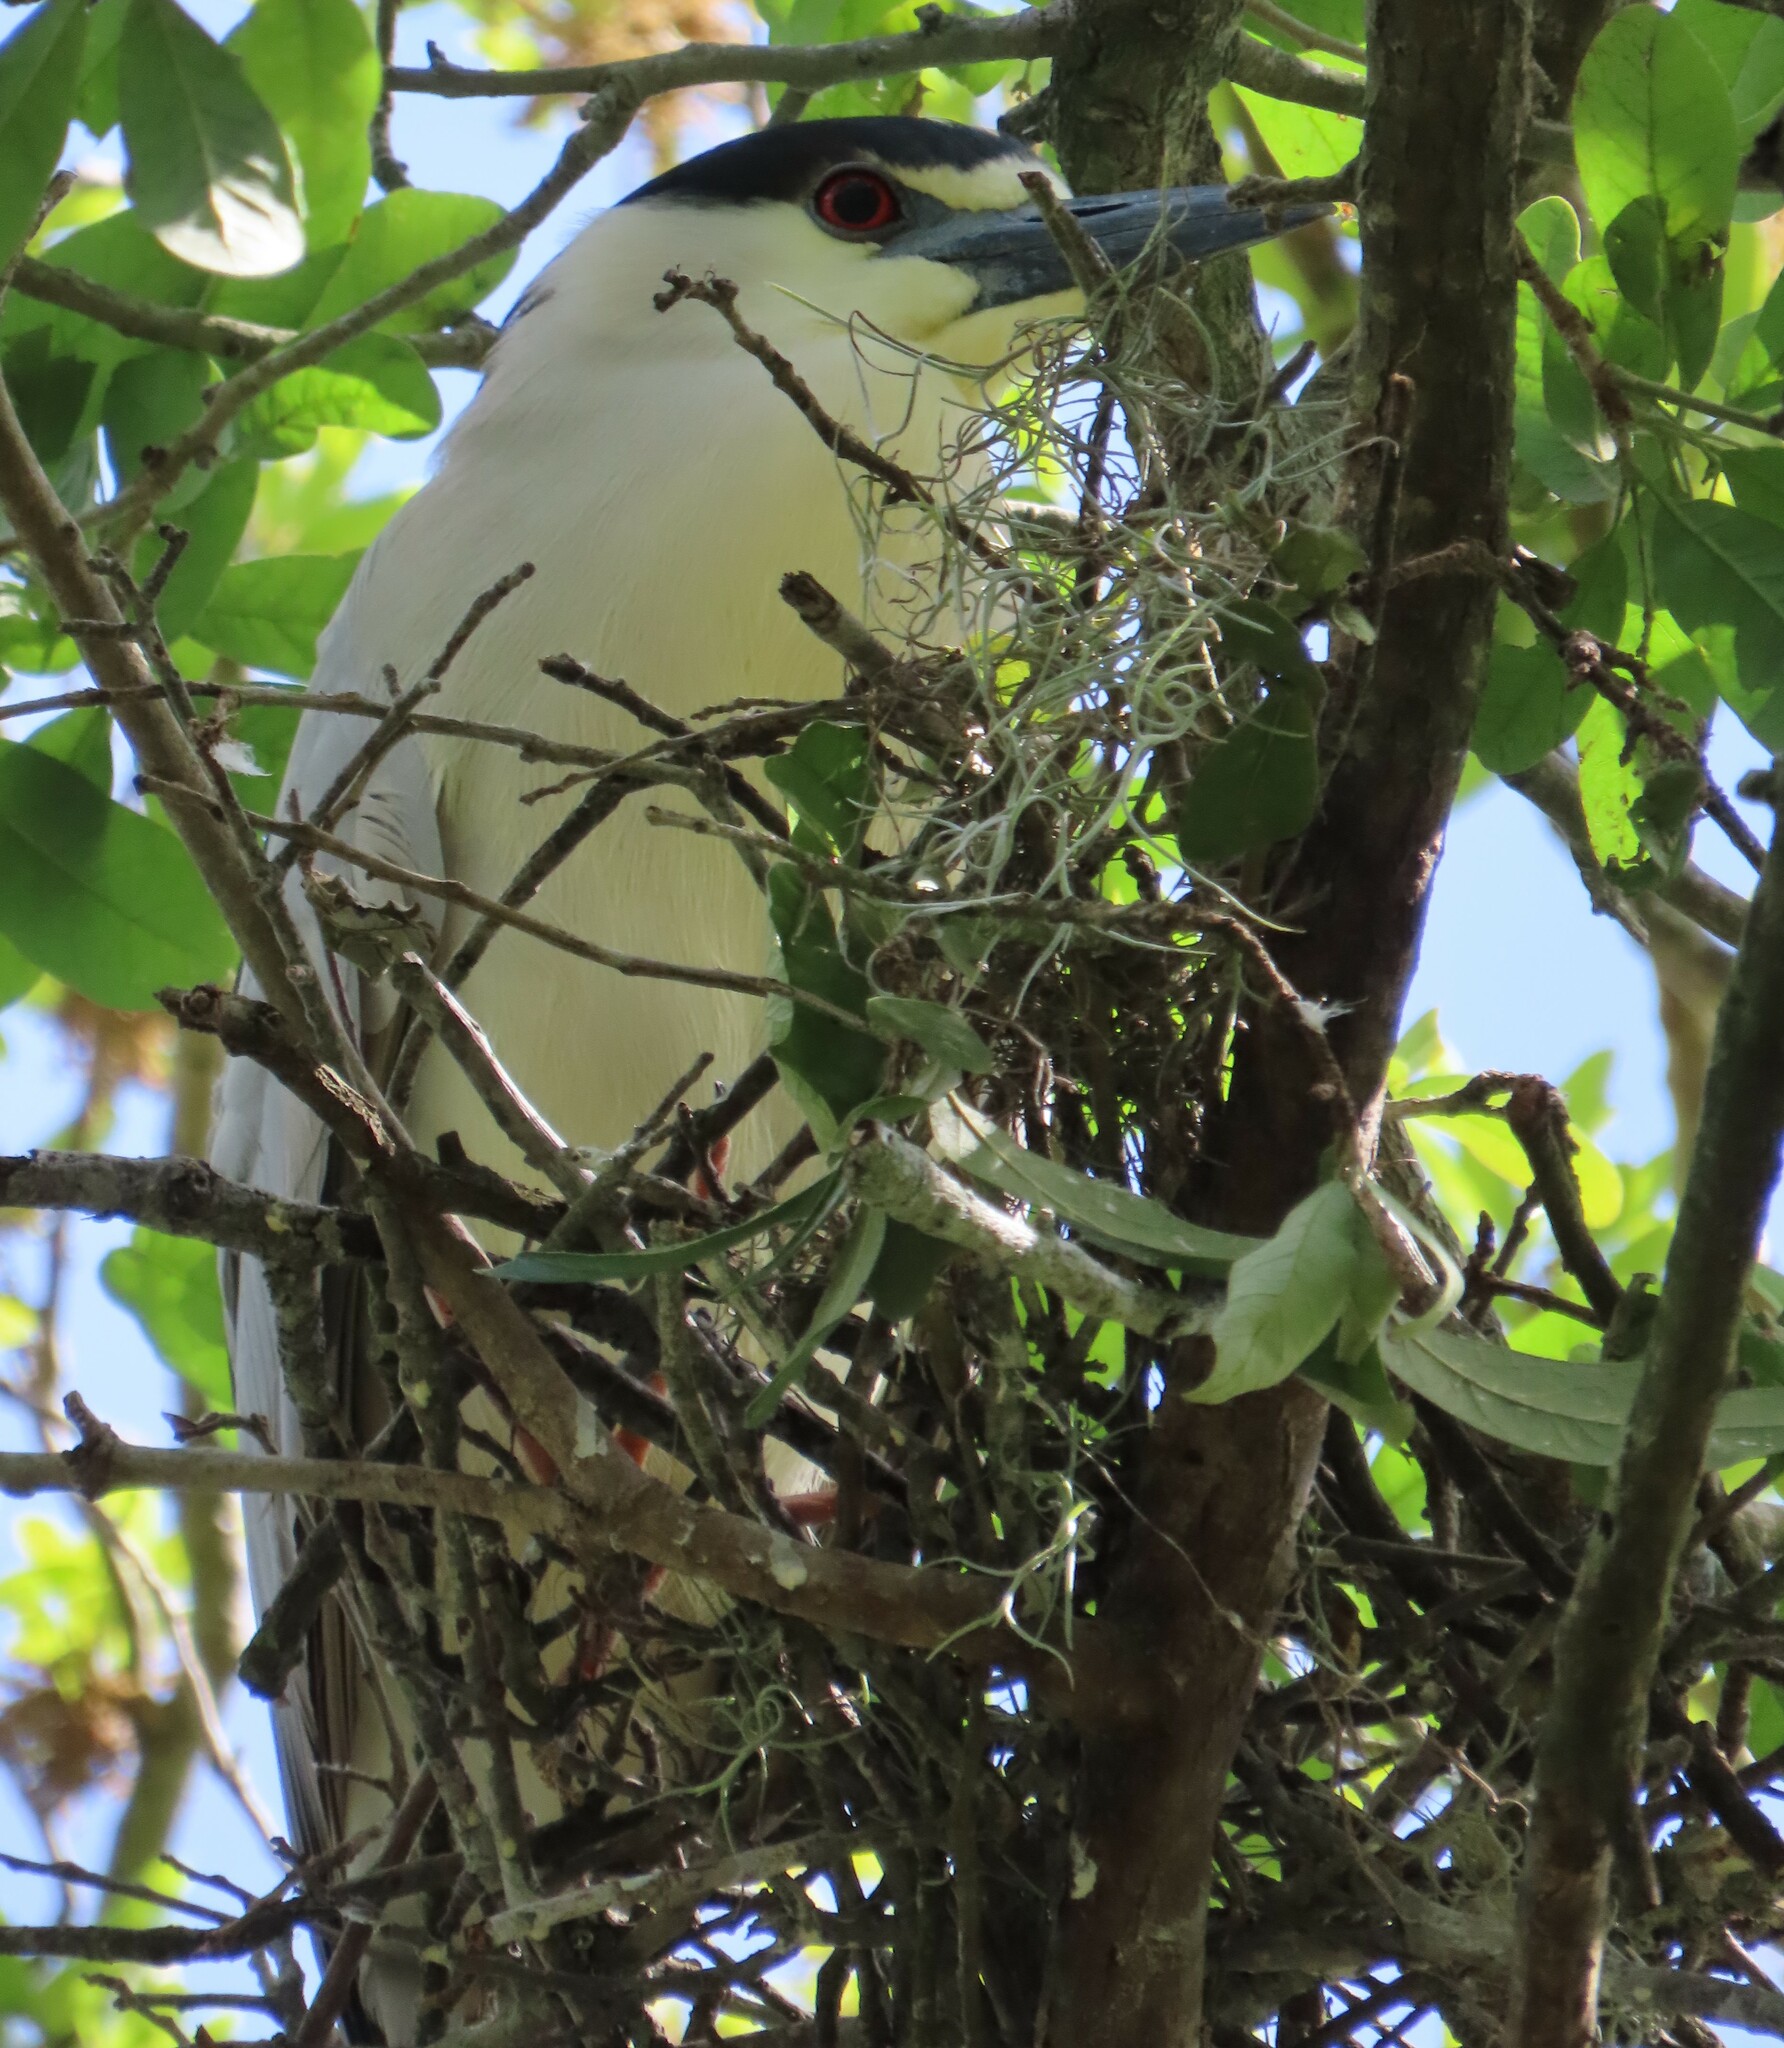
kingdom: Animalia
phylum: Chordata
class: Aves
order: Pelecaniformes
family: Ardeidae
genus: Nycticorax
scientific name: Nycticorax nycticorax
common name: Black-crowned night heron
